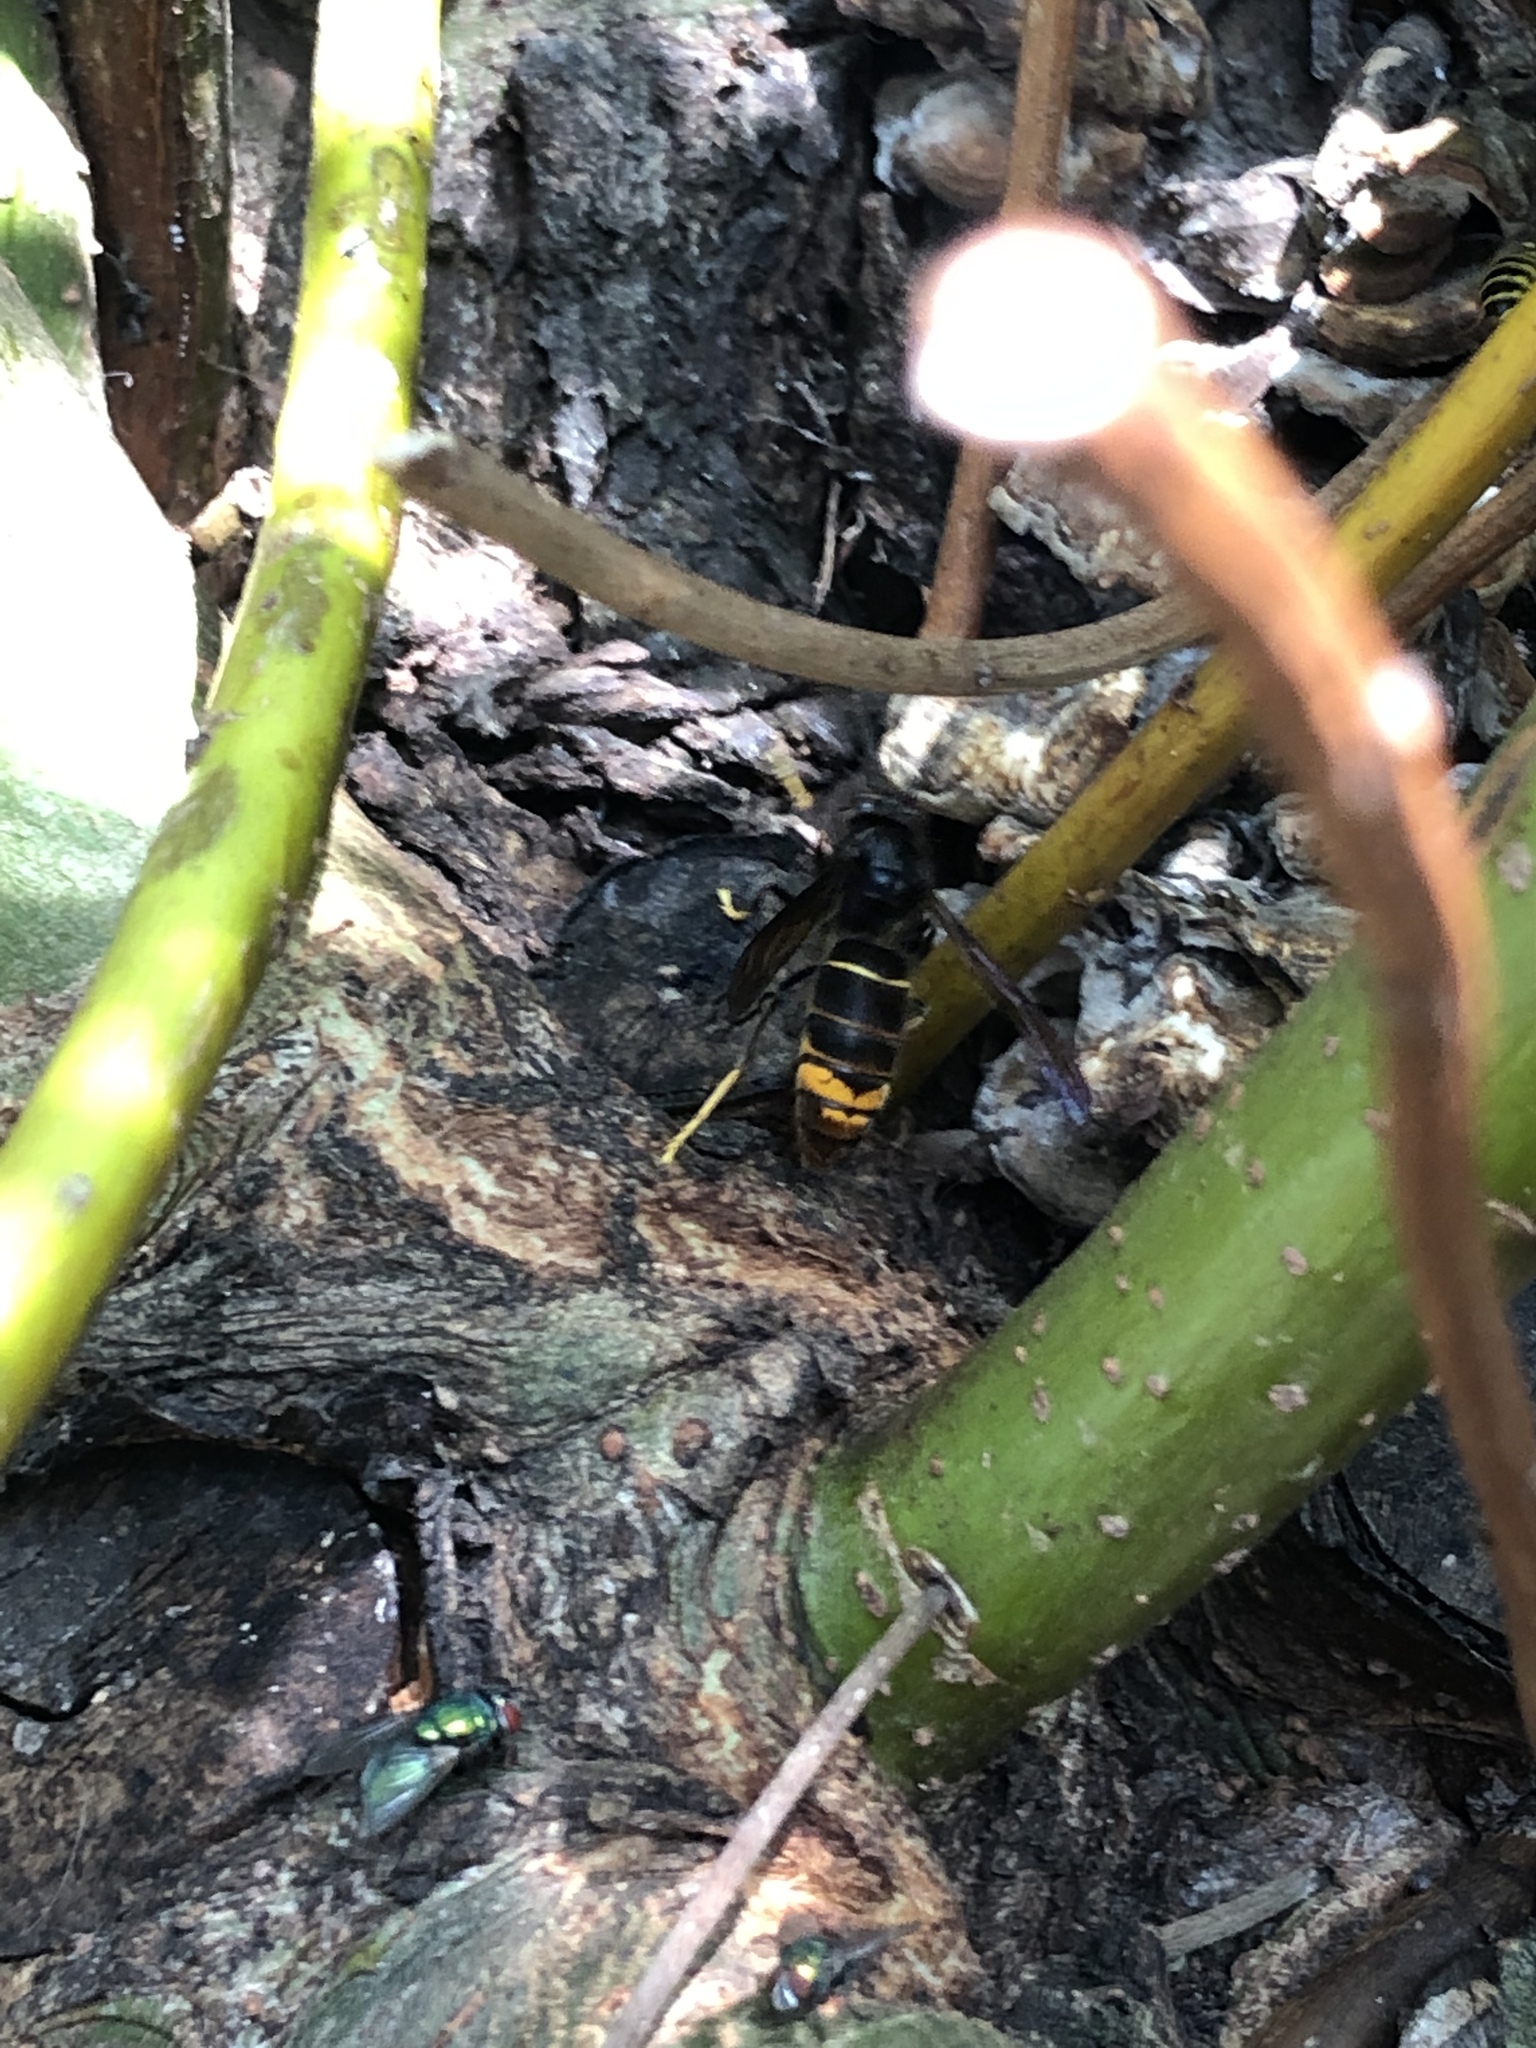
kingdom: Animalia
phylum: Arthropoda
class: Insecta
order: Hymenoptera
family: Vespidae
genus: Vespa
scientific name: Vespa velutina
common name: Asian hornet
